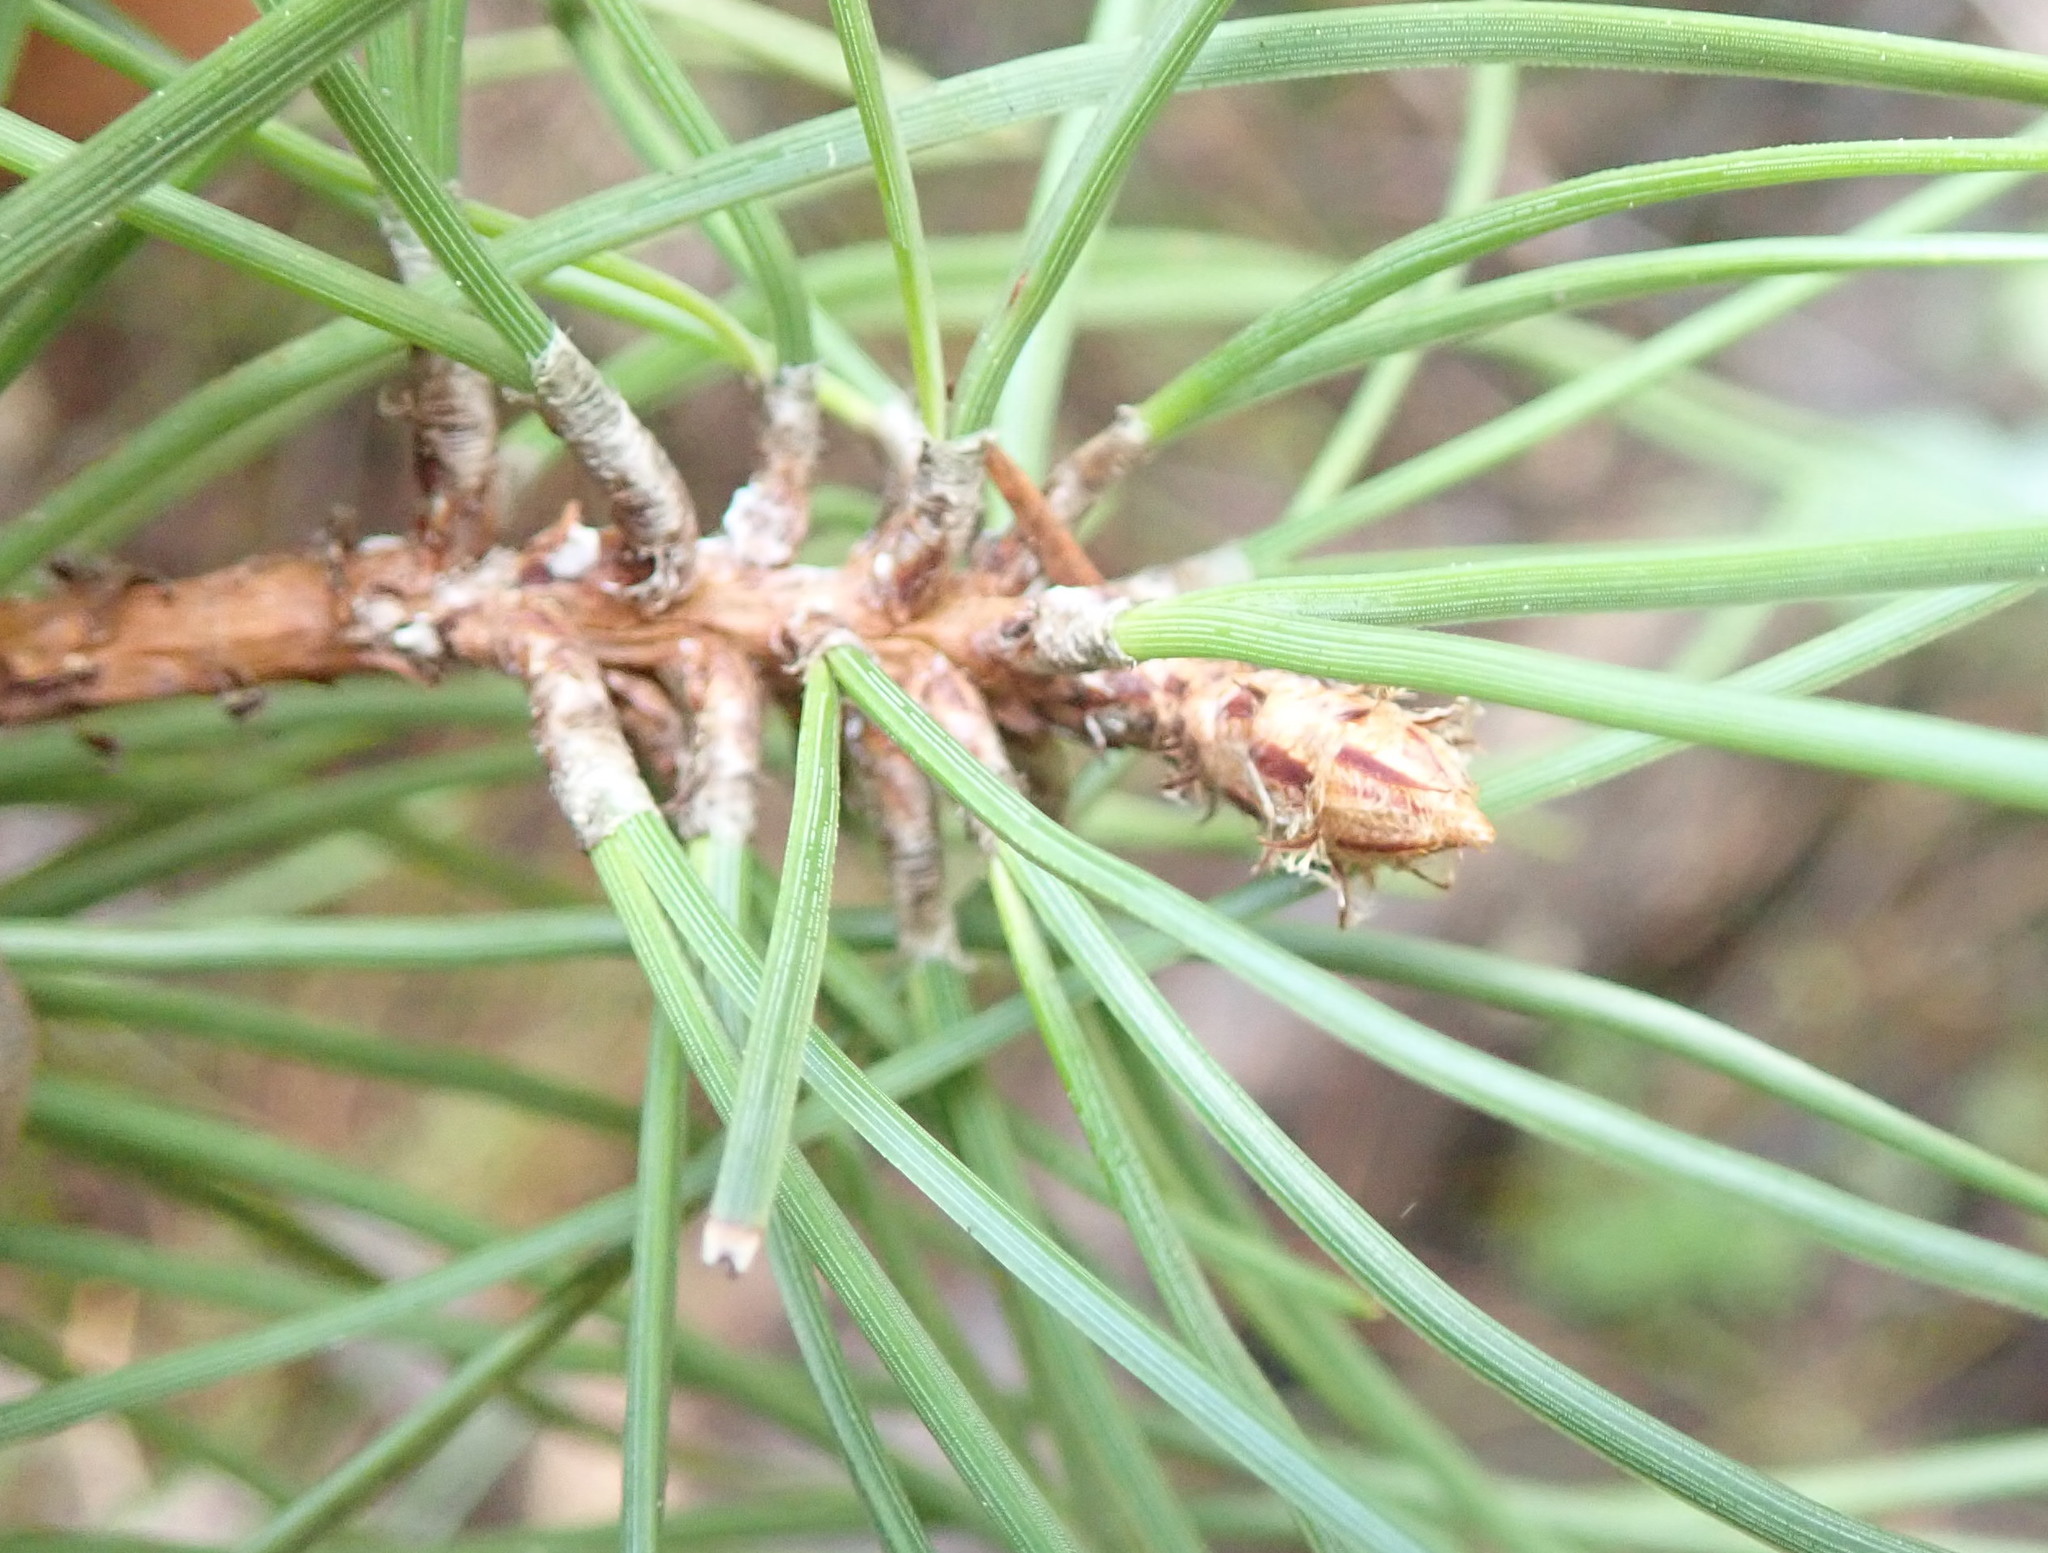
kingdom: Plantae
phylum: Tracheophyta
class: Pinopsida
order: Pinales
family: Pinaceae
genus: Pinus
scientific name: Pinus pinaster
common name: Maritime pine
